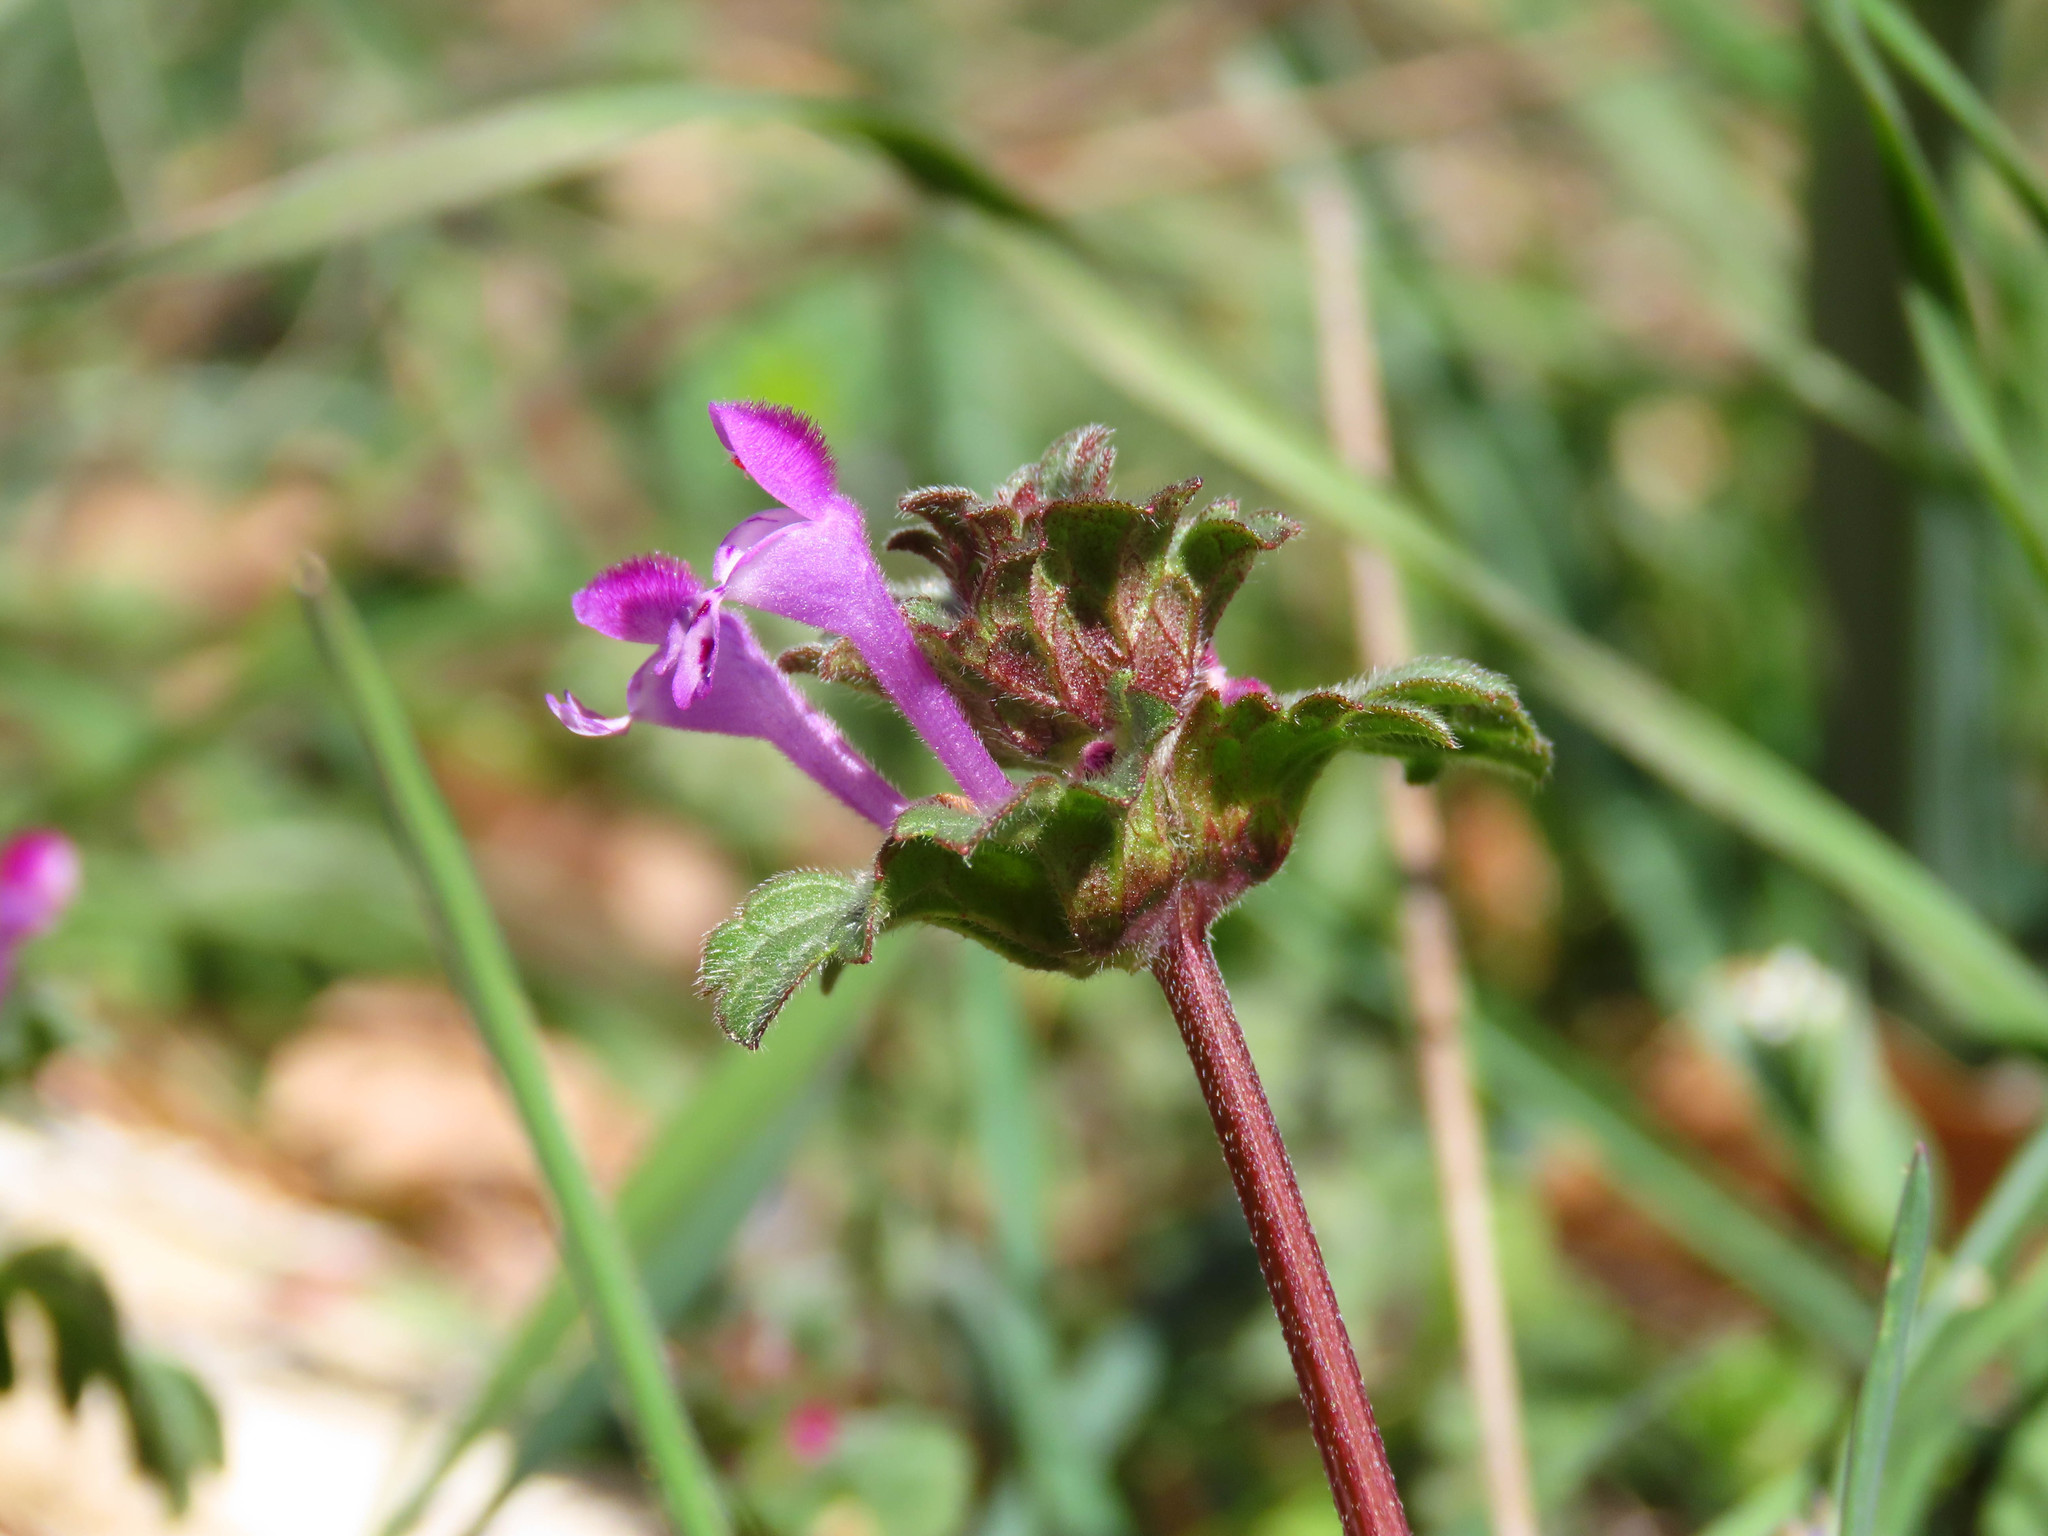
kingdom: Plantae
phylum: Tracheophyta
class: Magnoliopsida
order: Lamiales
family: Lamiaceae
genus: Lamium
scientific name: Lamium amplexicaule
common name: Henbit dead-nettle
